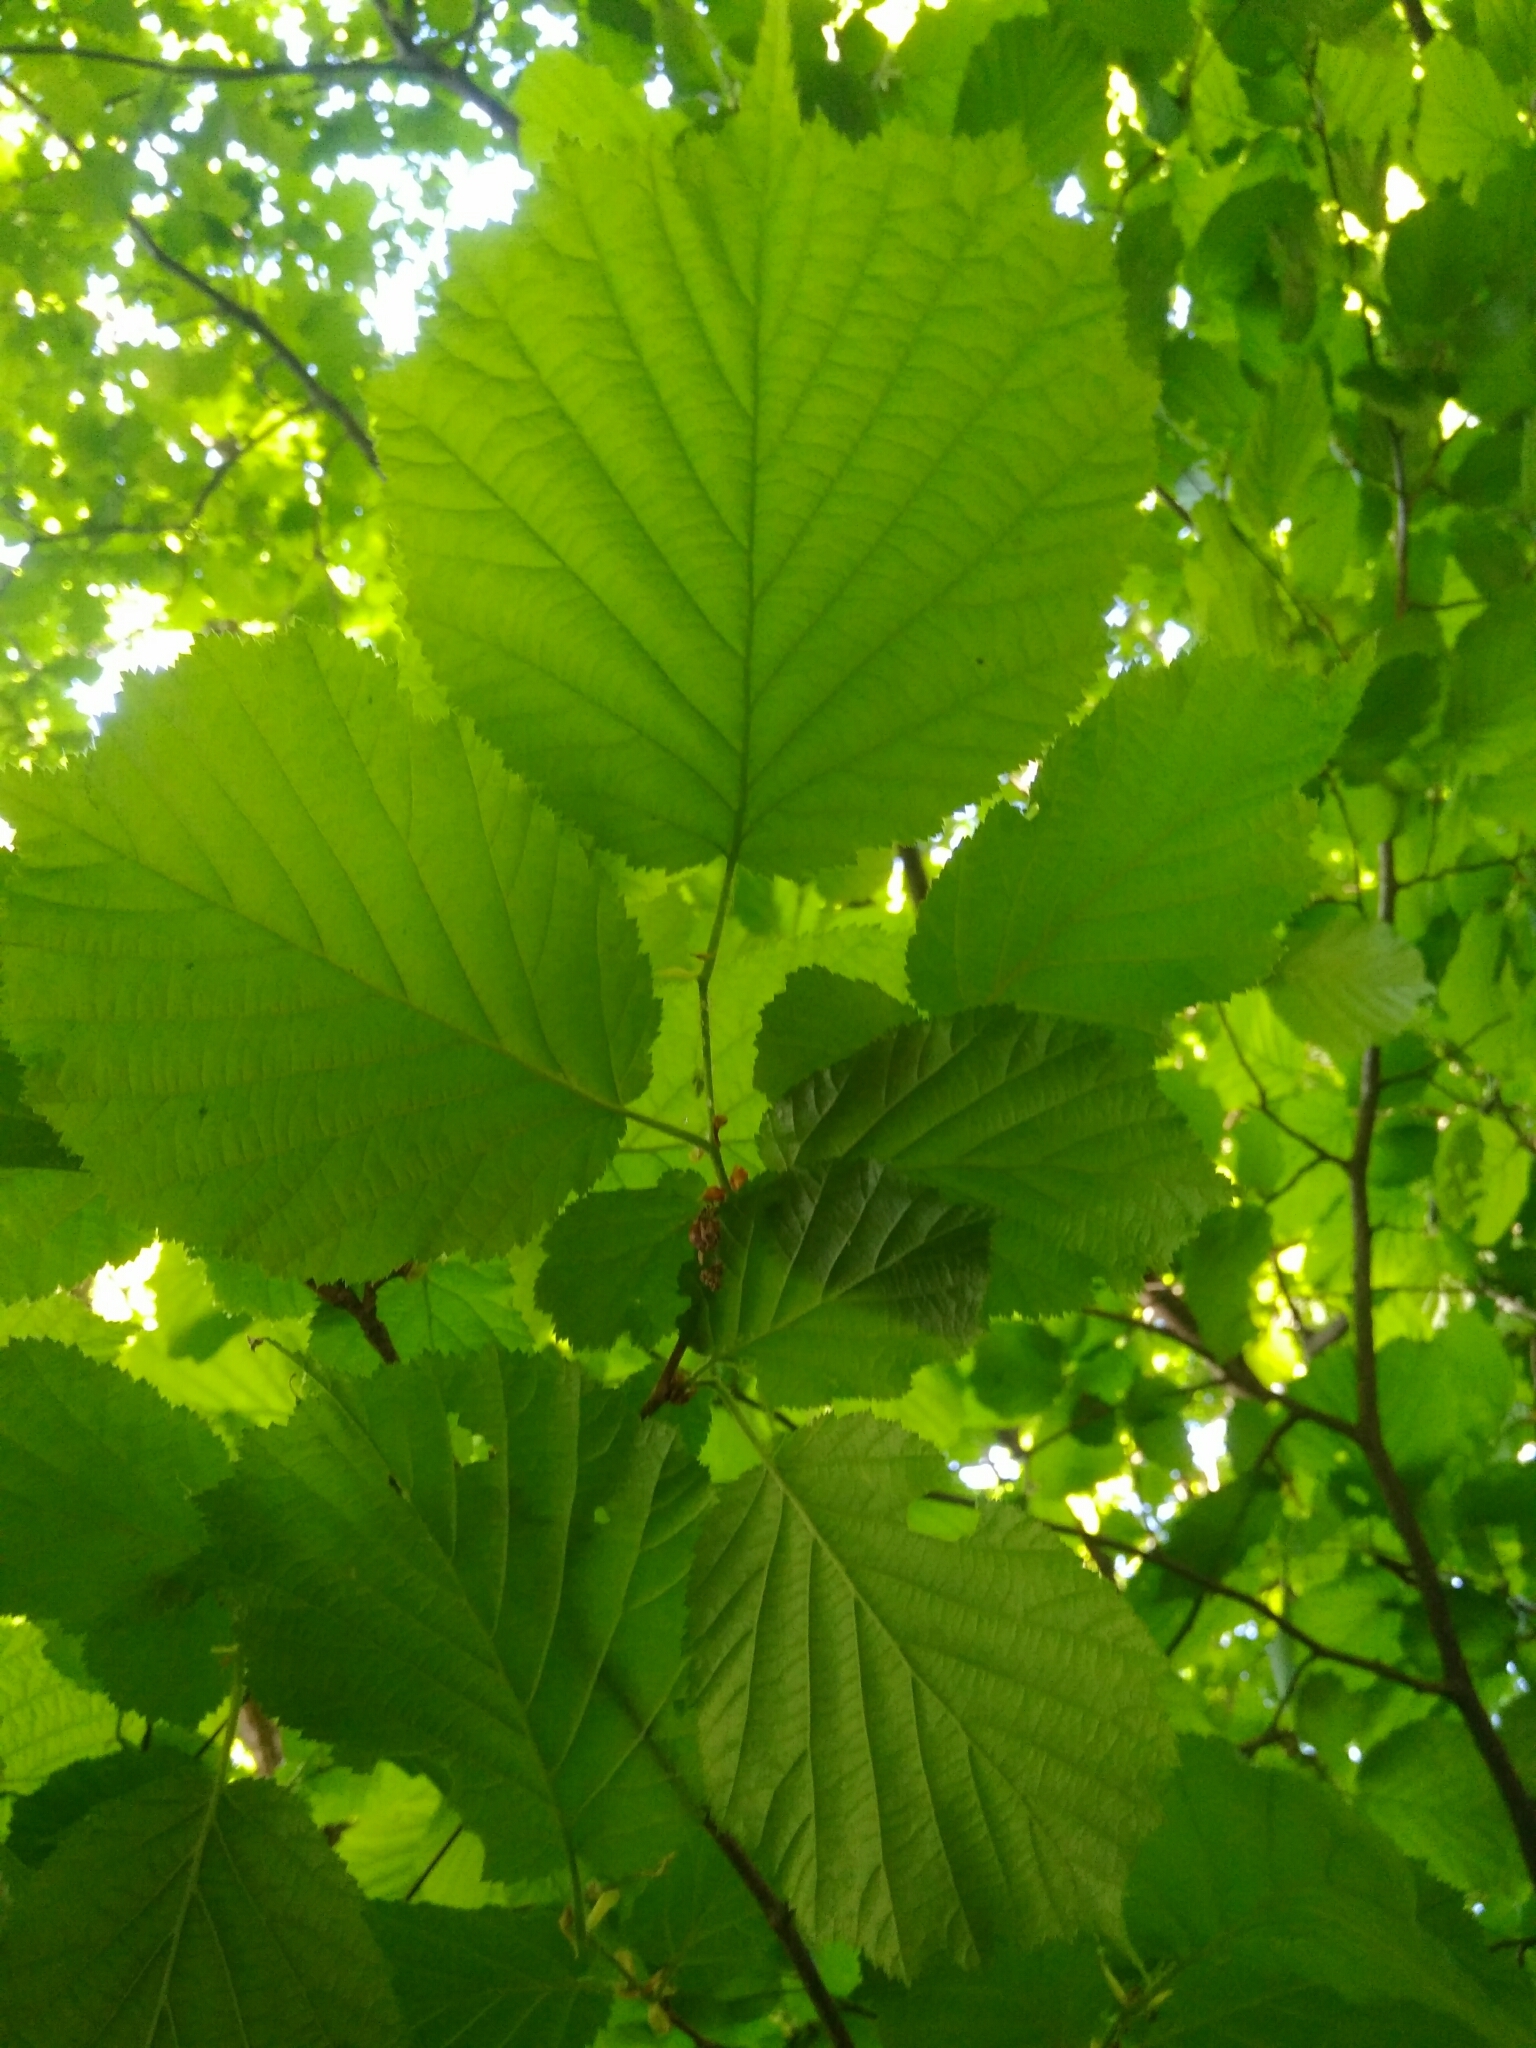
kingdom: Plantae
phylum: Tracheophyta
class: Magnoliopsida
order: Fagales
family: Betulaceae
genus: Corylus
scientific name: Corylus avellana
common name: European hazel
